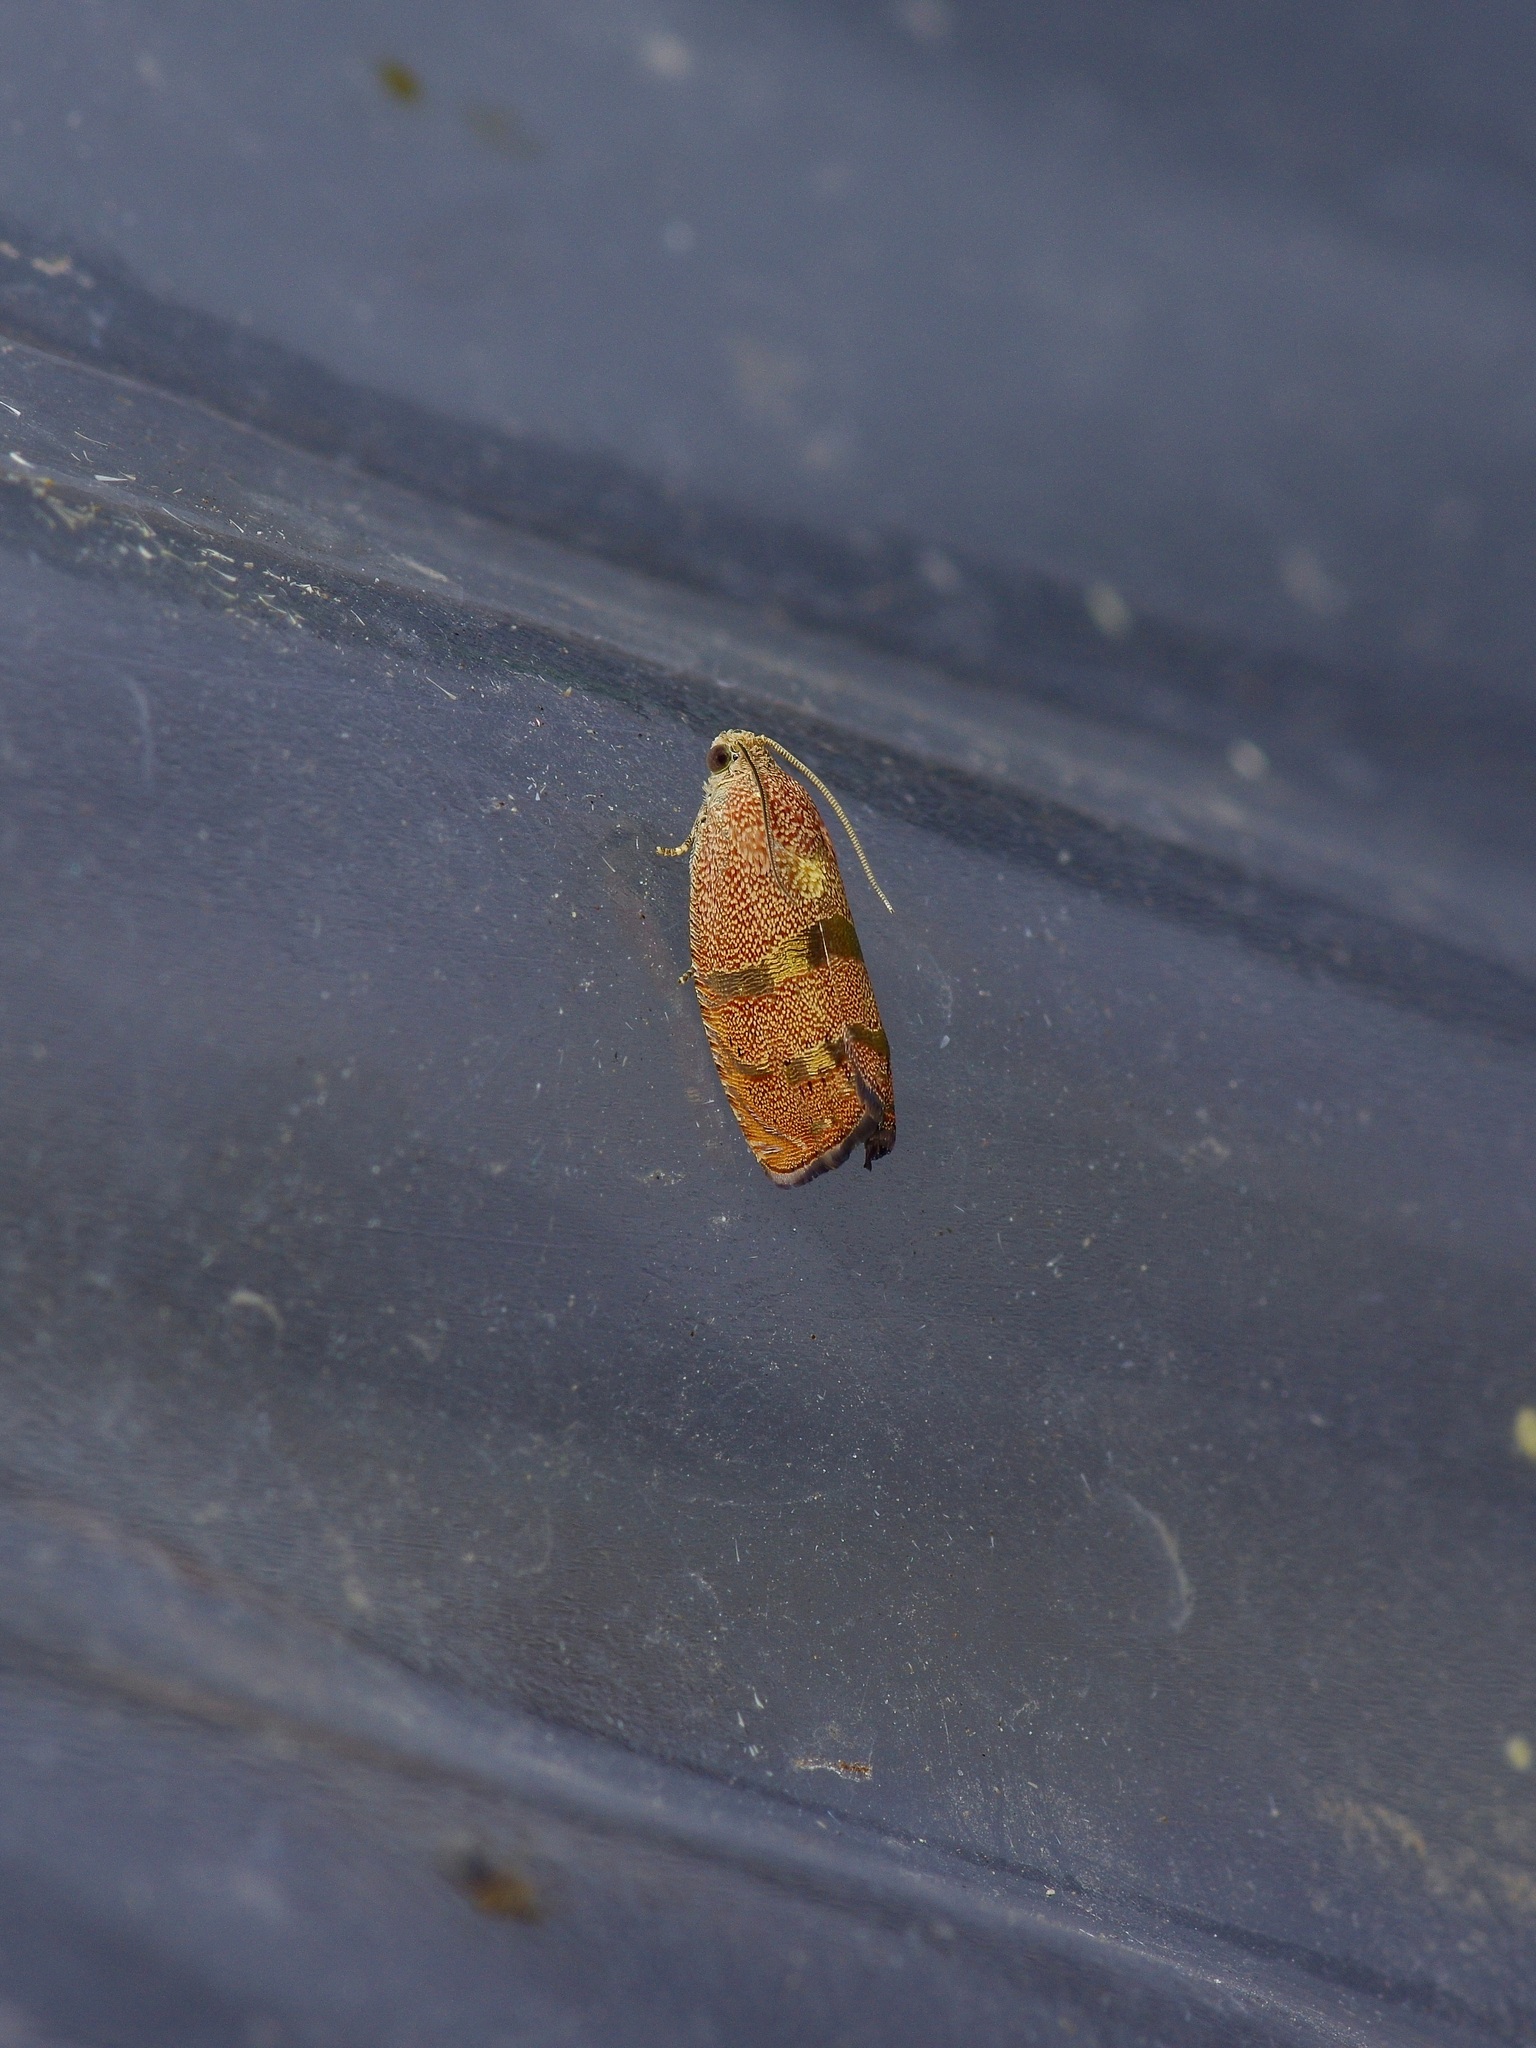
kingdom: Animalia
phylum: Arthropoda
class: Insecta
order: Lepidoptera
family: Tortricidae
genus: Cydia
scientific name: Cydia latiferreana
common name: Filbertworm moth
